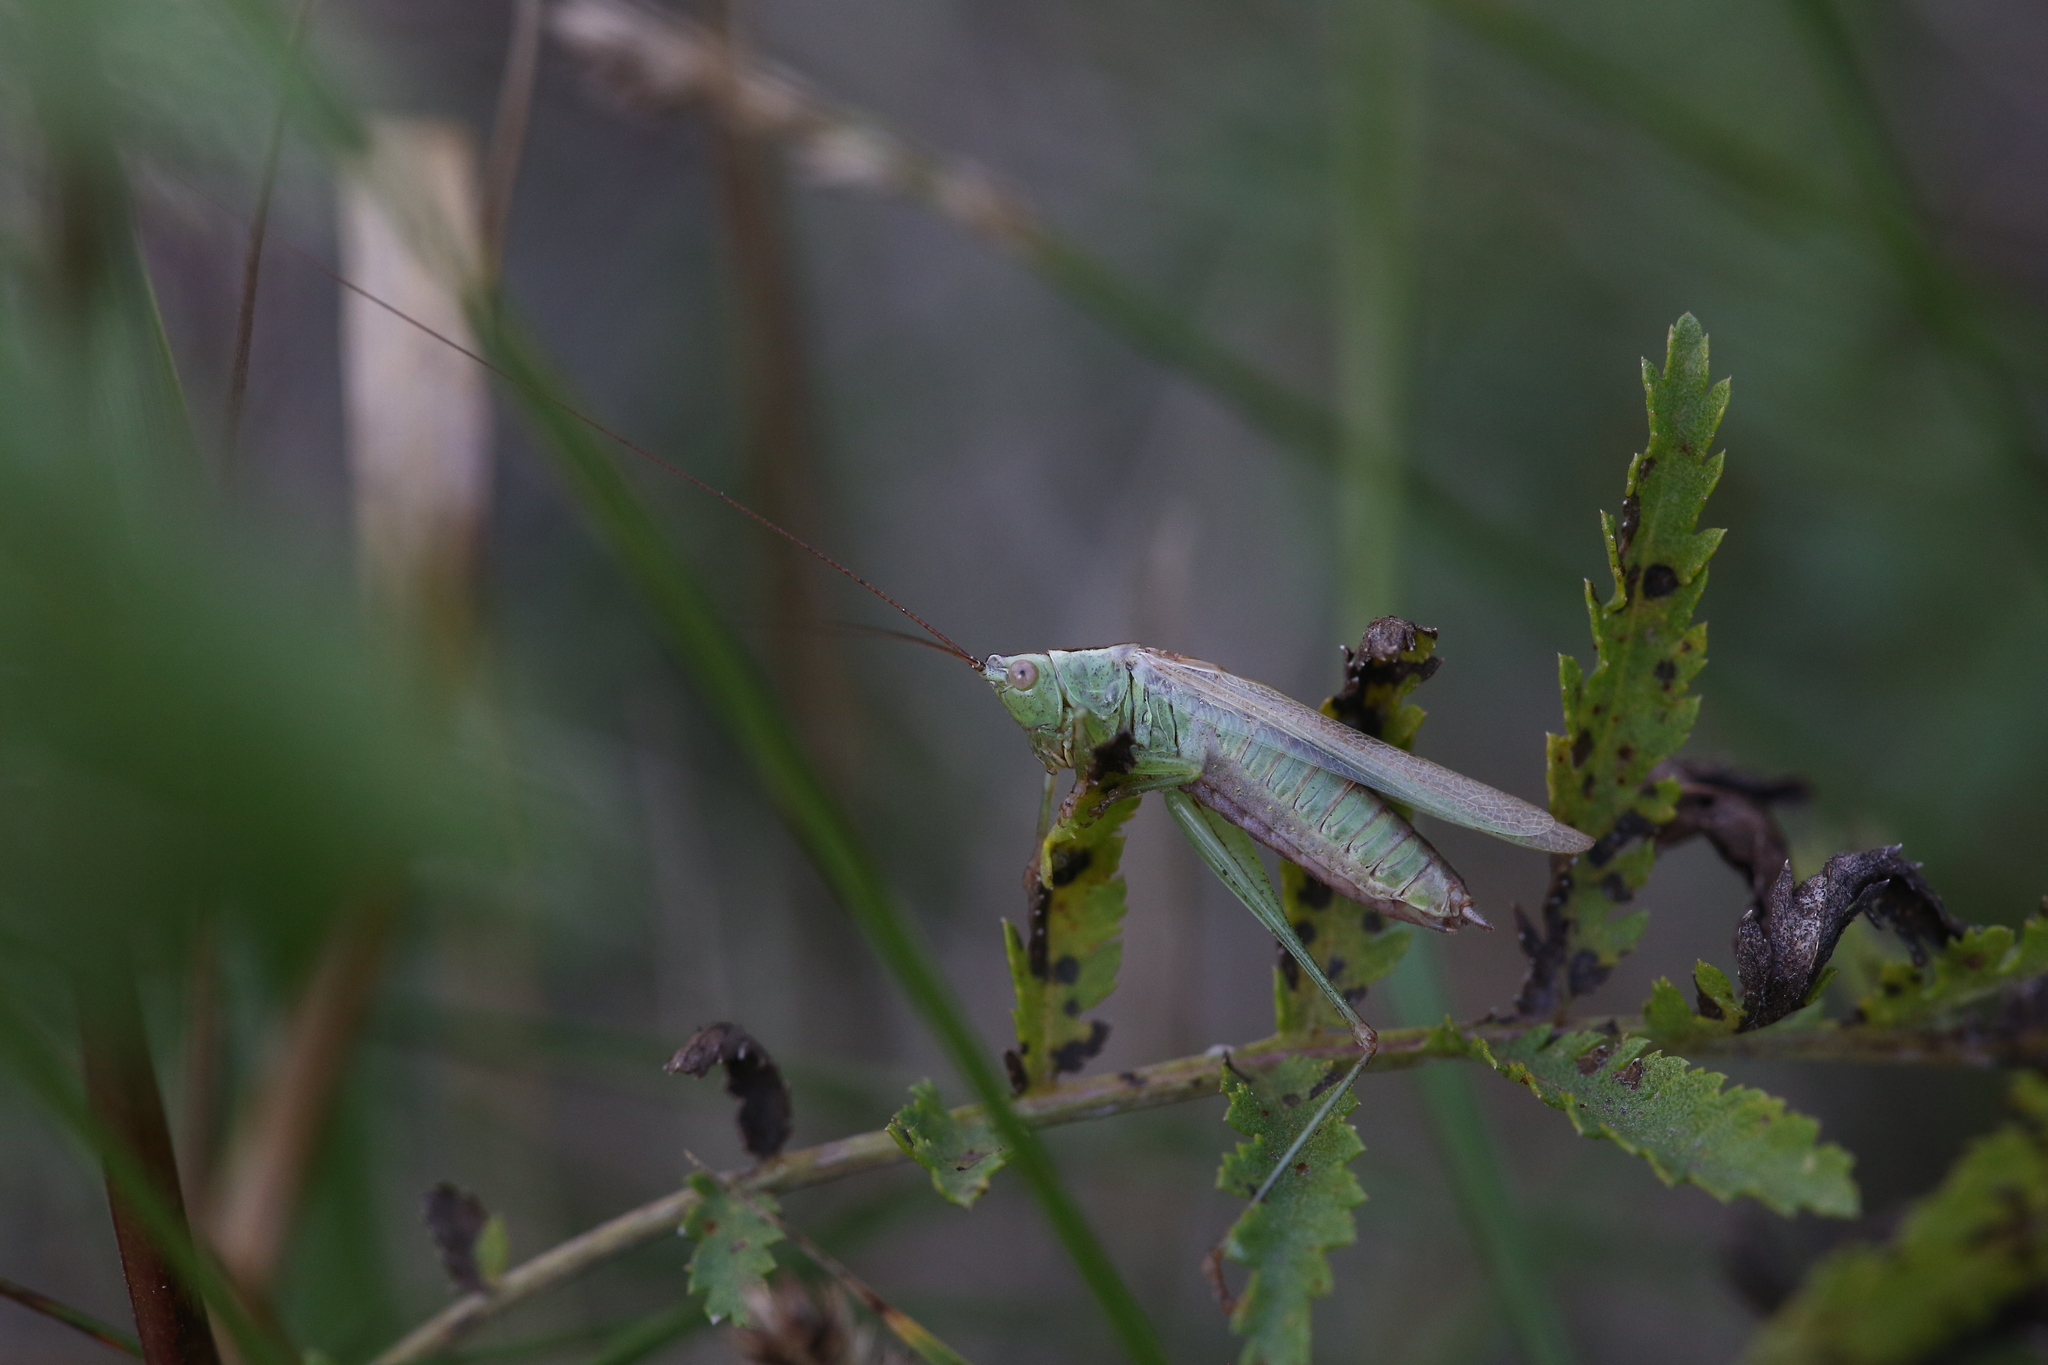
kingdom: Animalia
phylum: Arthropoda
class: Insecta
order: Orthoptera
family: Tettigoniidae
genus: Conocephalus
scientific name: Conocephalus fuscus
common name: Long-winged conehead
